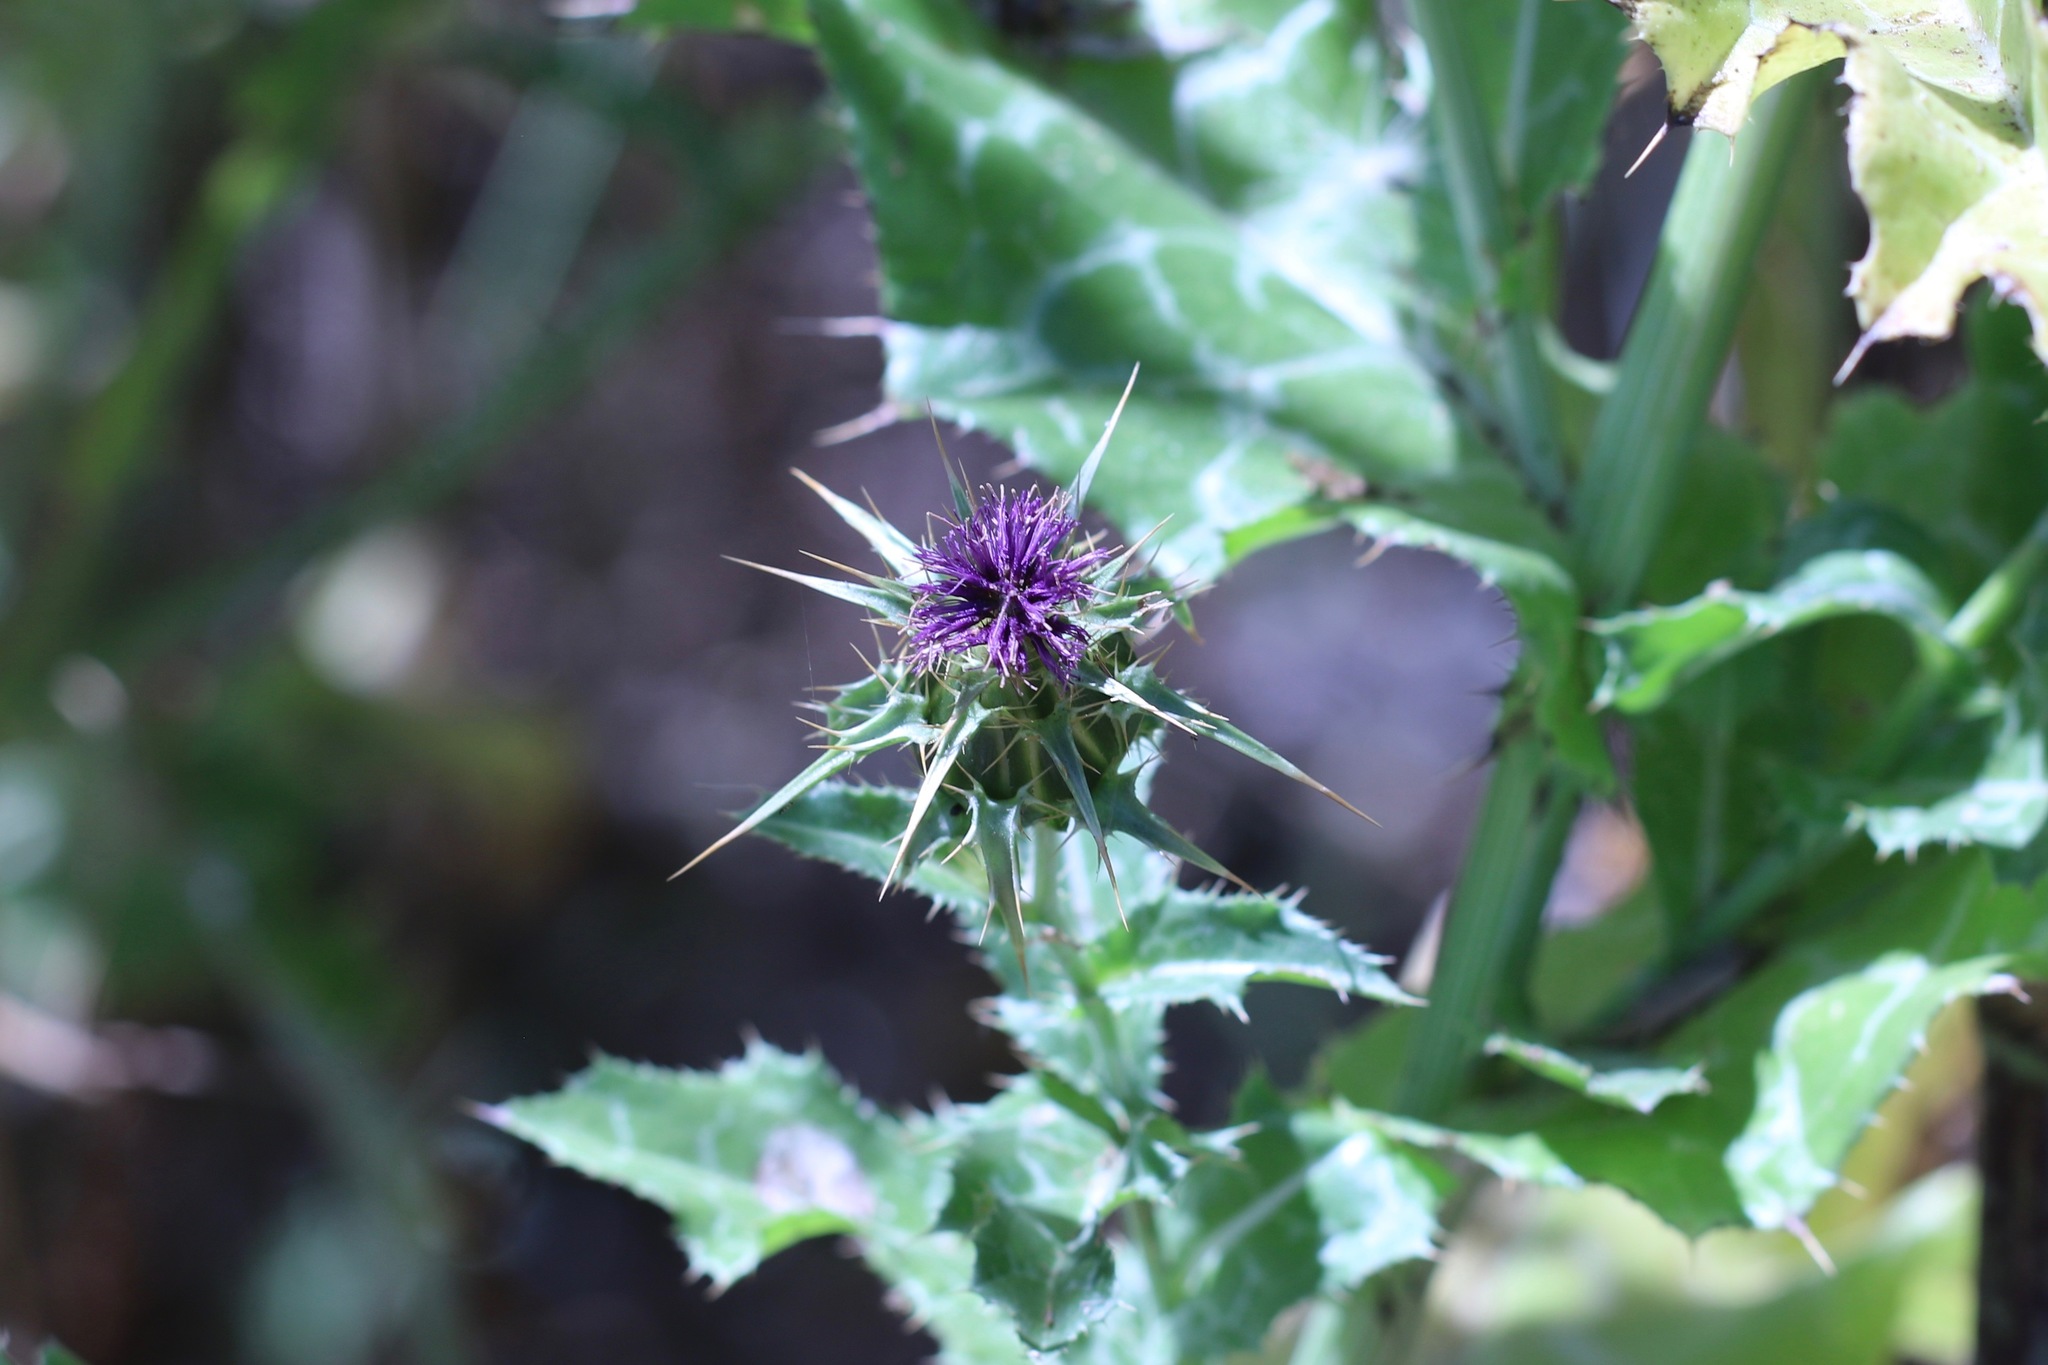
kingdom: Plantae
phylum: Tracheophyta
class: Magnoliopsida
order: Asterales
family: Asteraceae
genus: Silybum
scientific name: Silybum marianum
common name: Milk thistle
